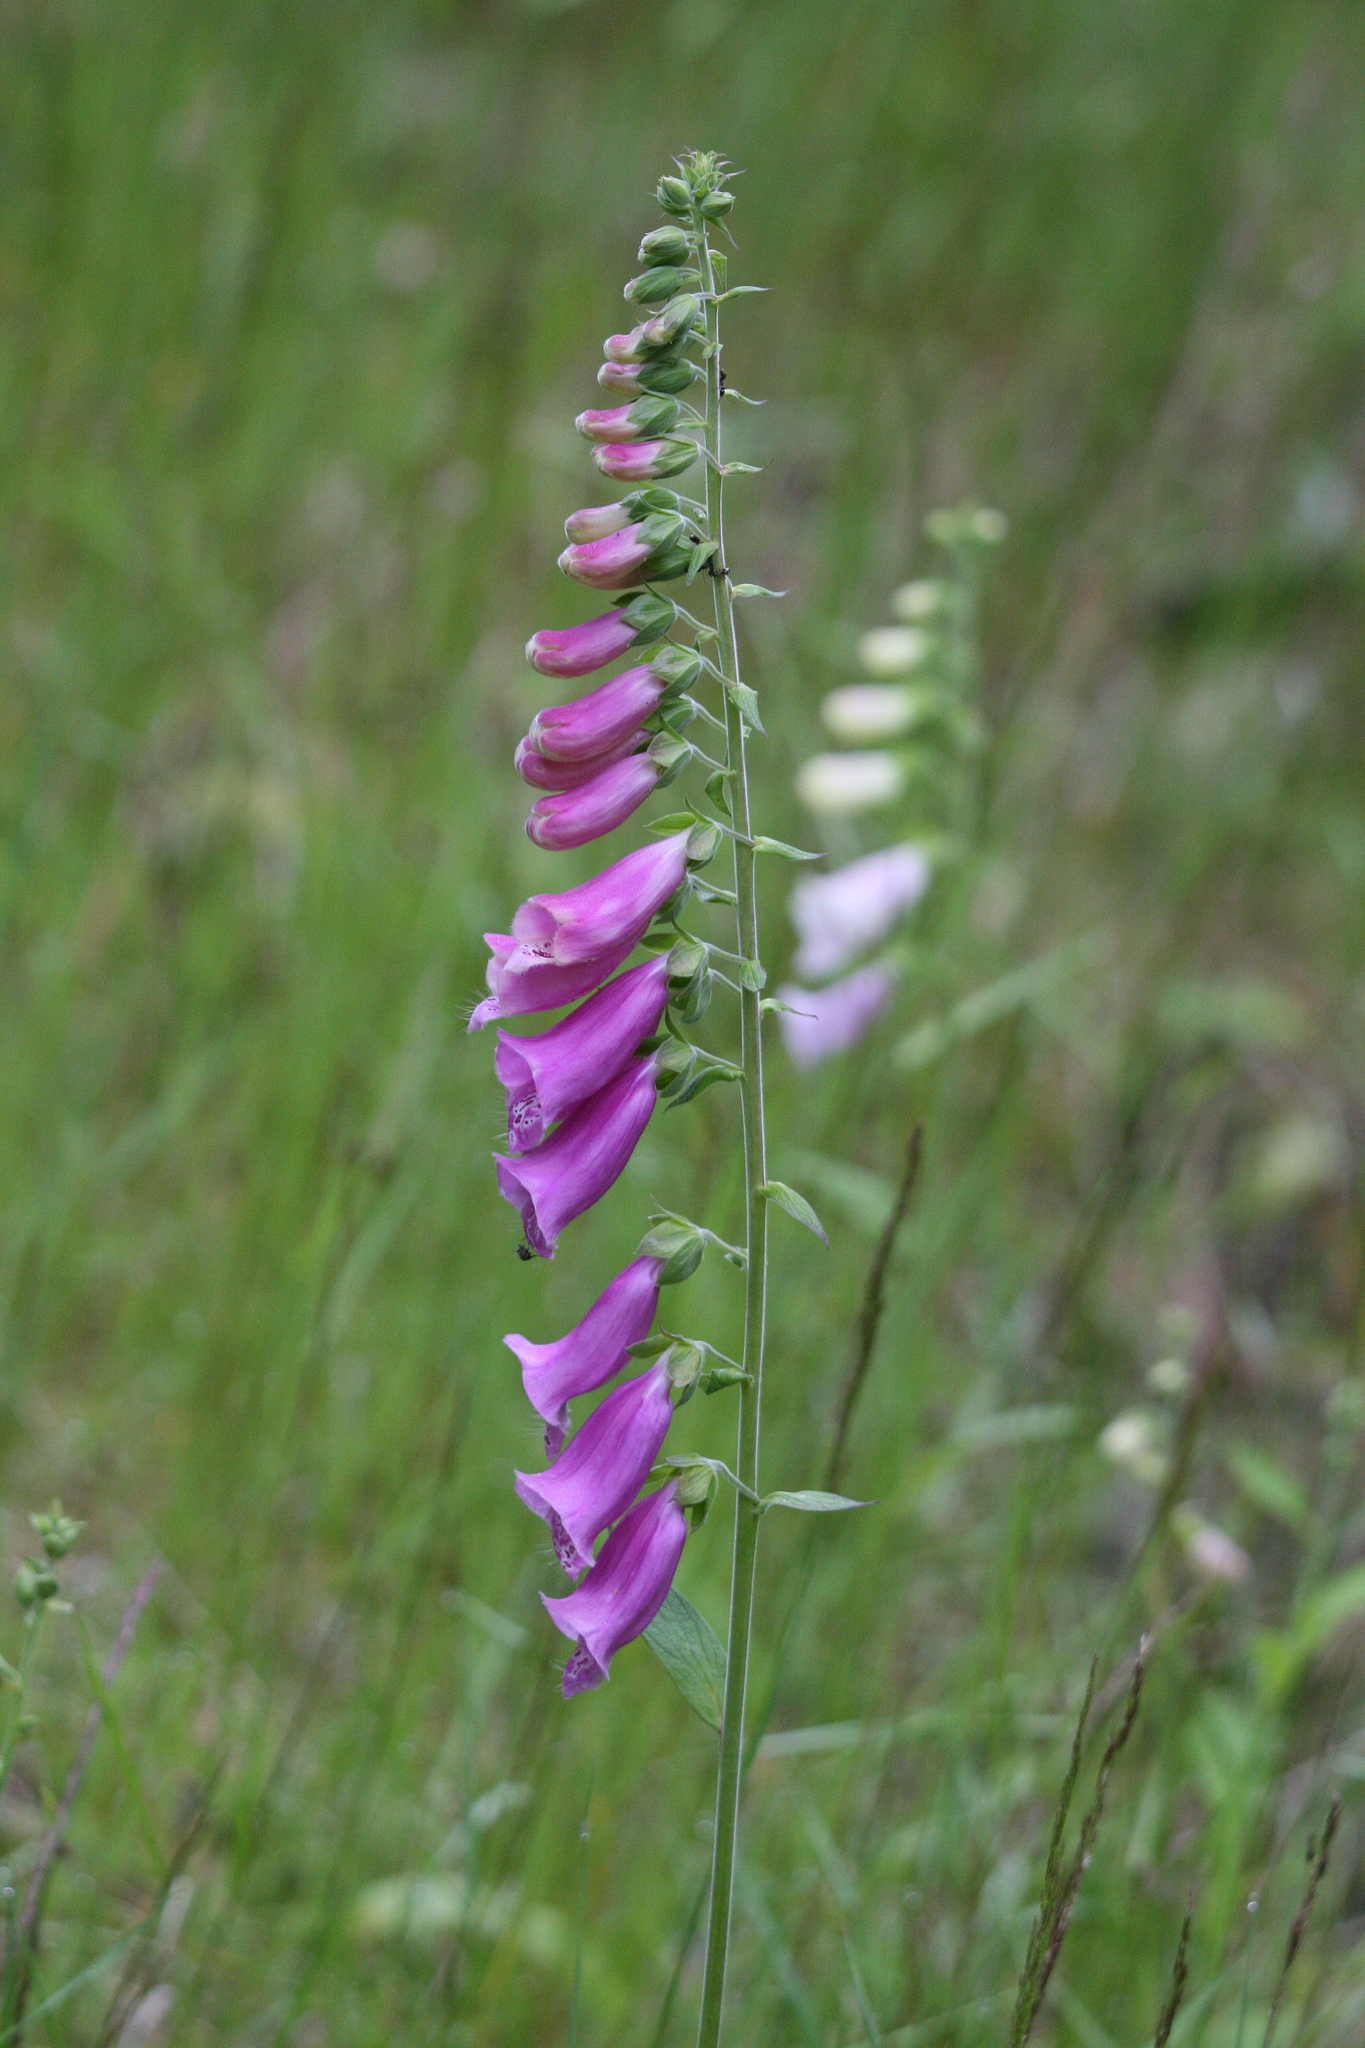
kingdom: Plantae
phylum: Tracheophyta
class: Magnoliopsida
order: Lamiales
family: Plantaginaceae
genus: Digitalis
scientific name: Digitalis purpurea
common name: Foxglove
